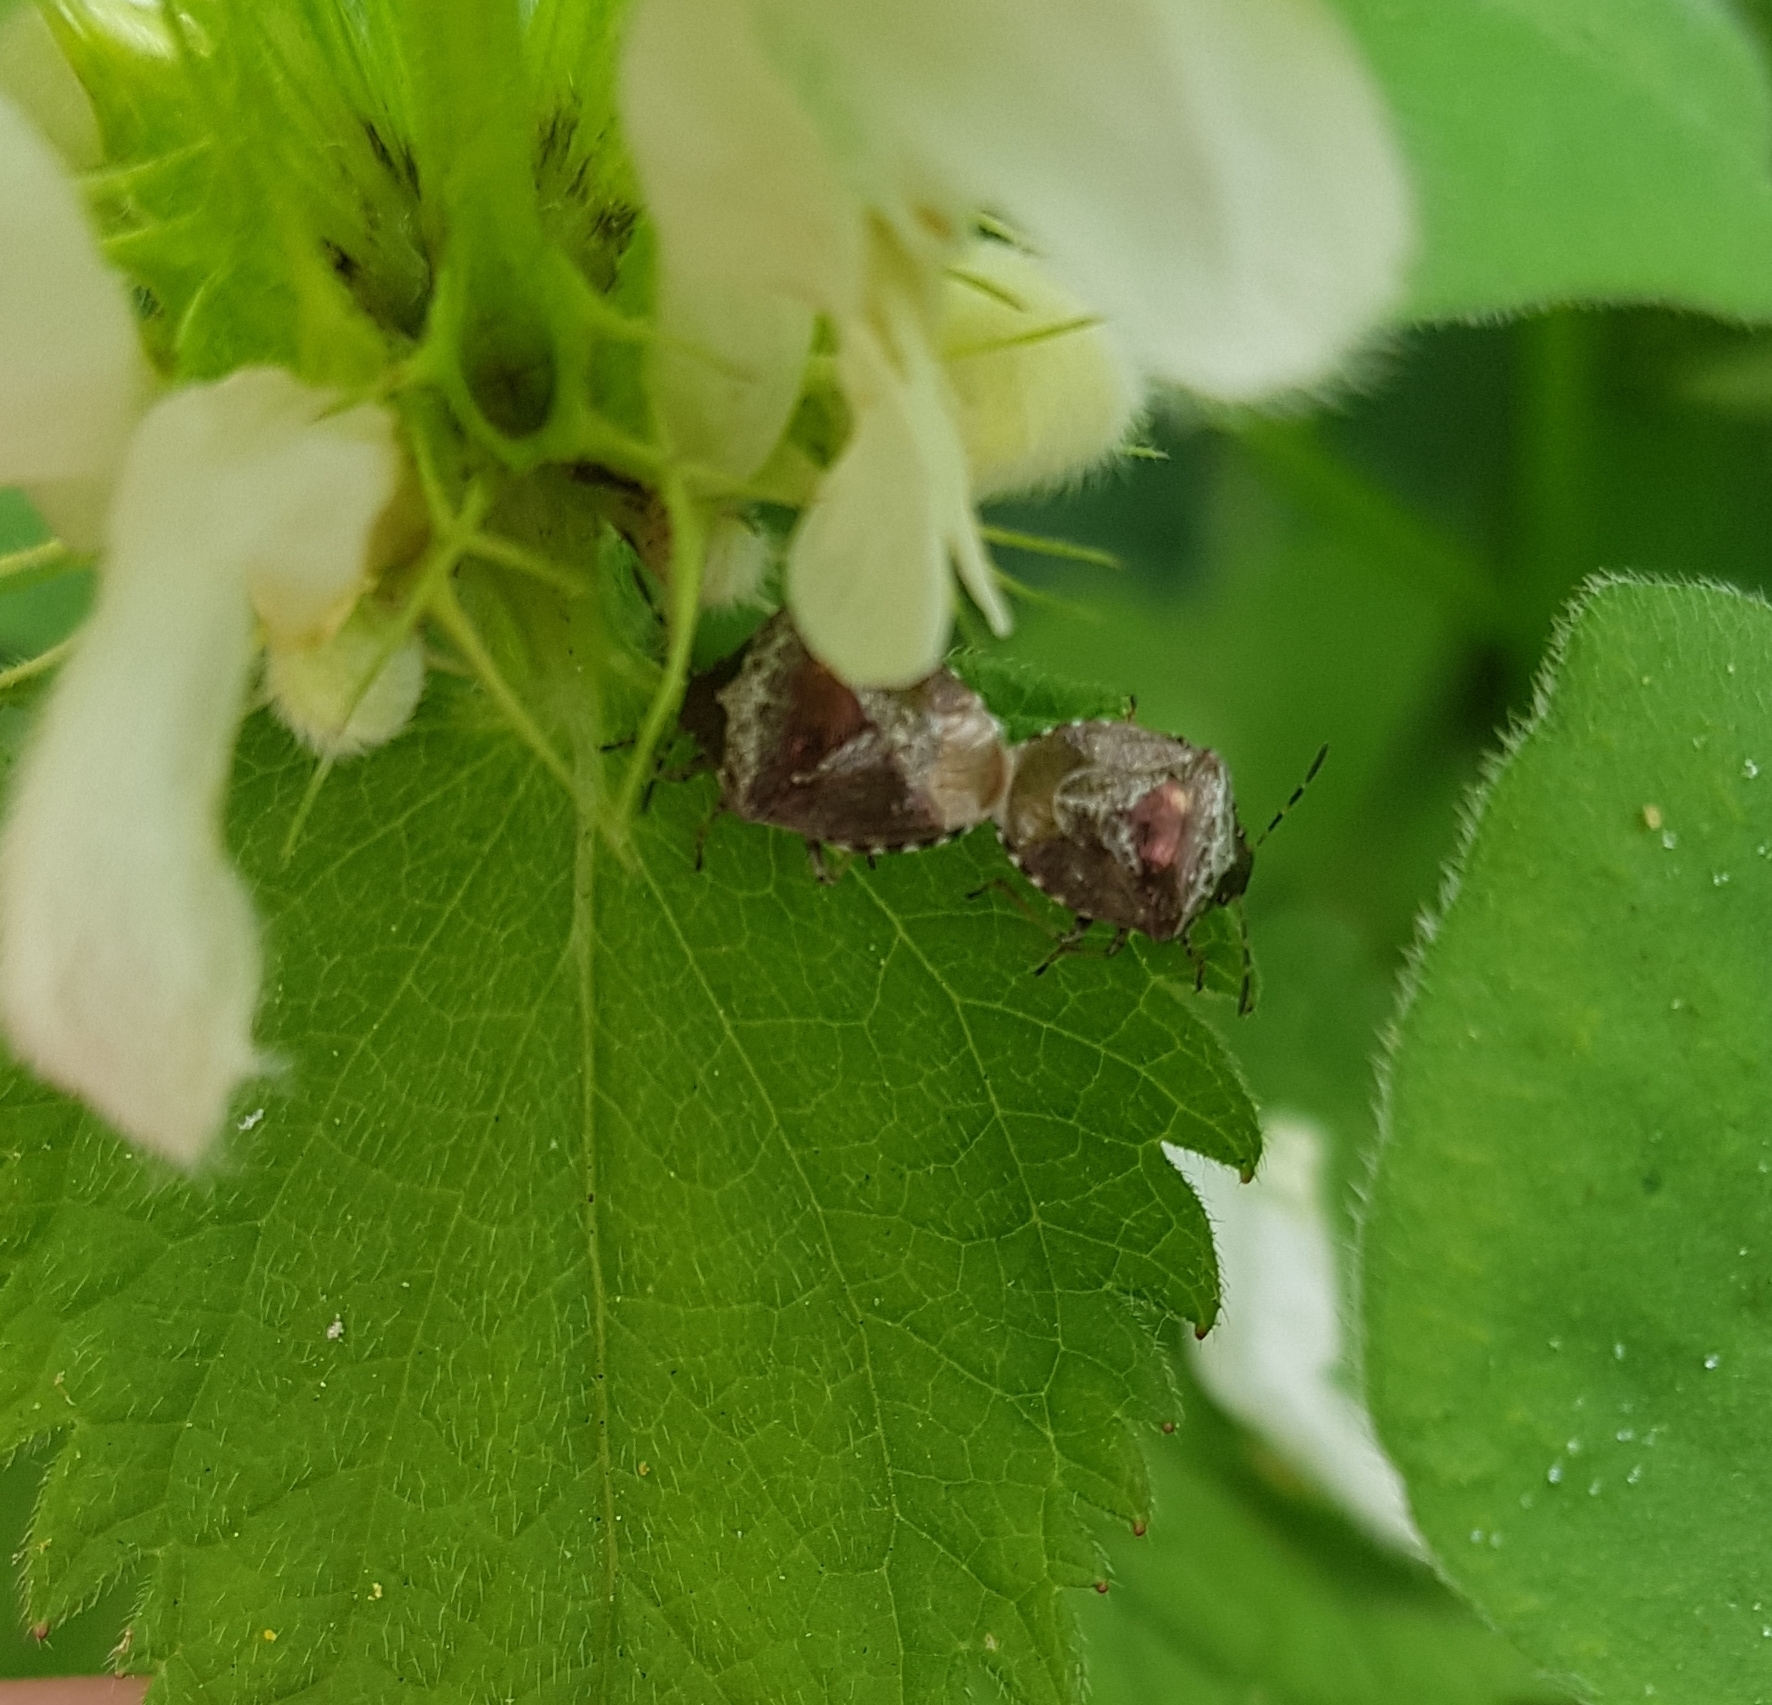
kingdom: Animalia
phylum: Arthropoda
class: Insecta
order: Hemiptera
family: Pentatomidae
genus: Eysarcoris
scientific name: Eysarcoris venustissimus
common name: Woundwort shieldbug
